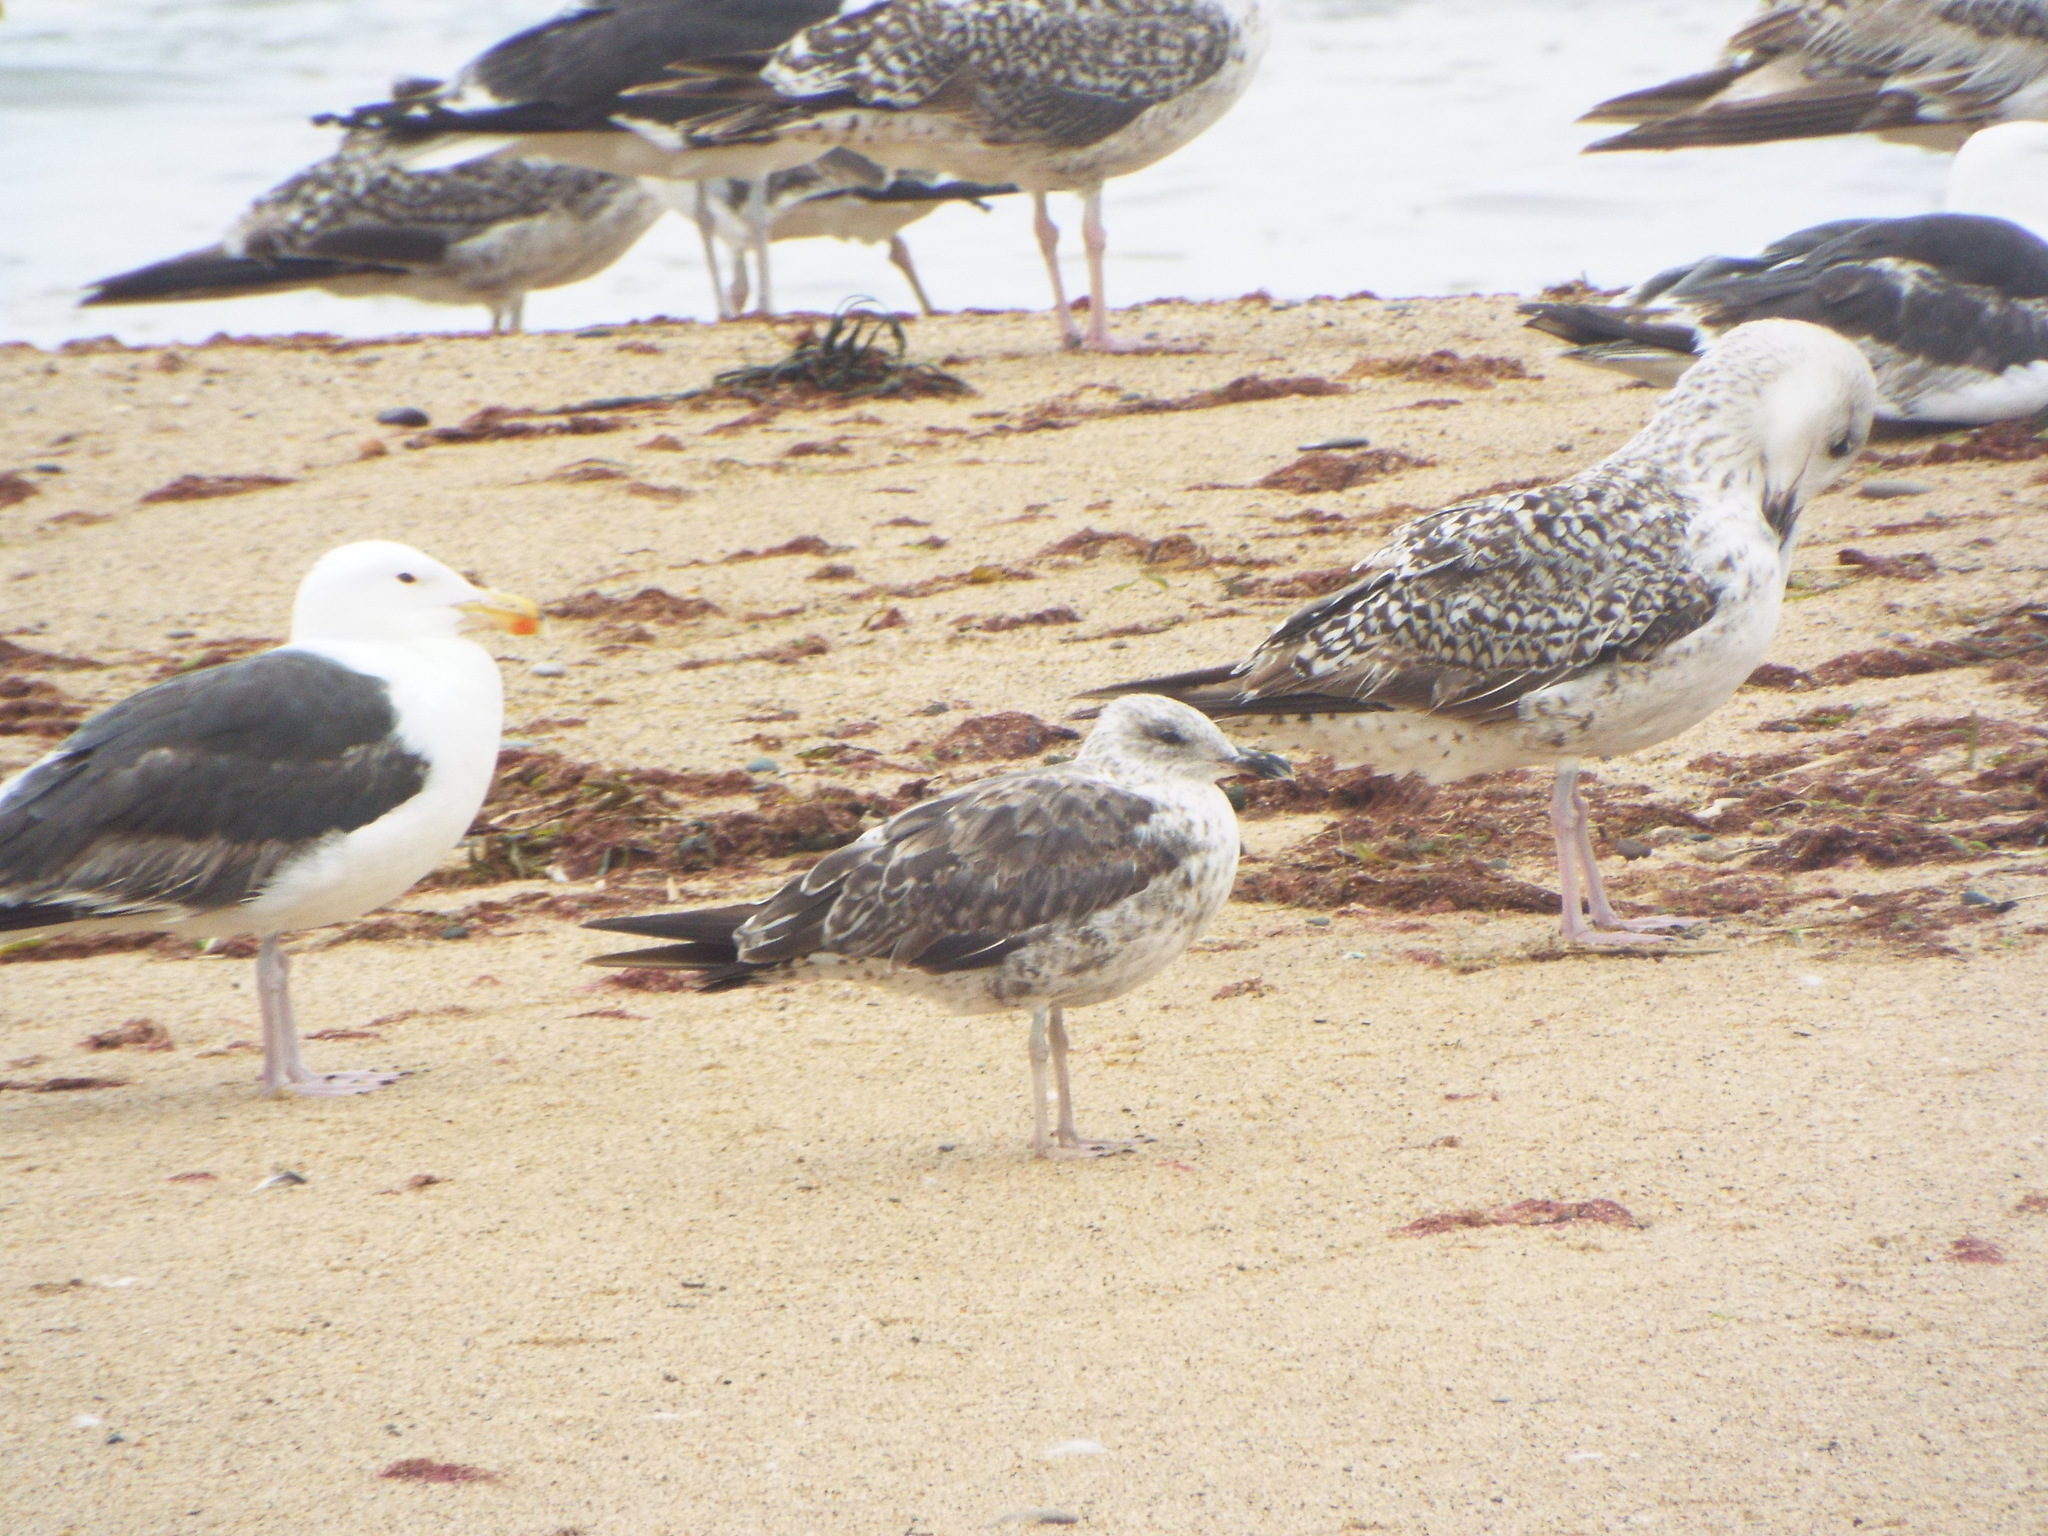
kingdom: Animalia
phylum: Chordata
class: Aves
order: Charadriiformes
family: Laridae
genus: Larus
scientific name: Larus fuscus
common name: Lesser black-backed gull
